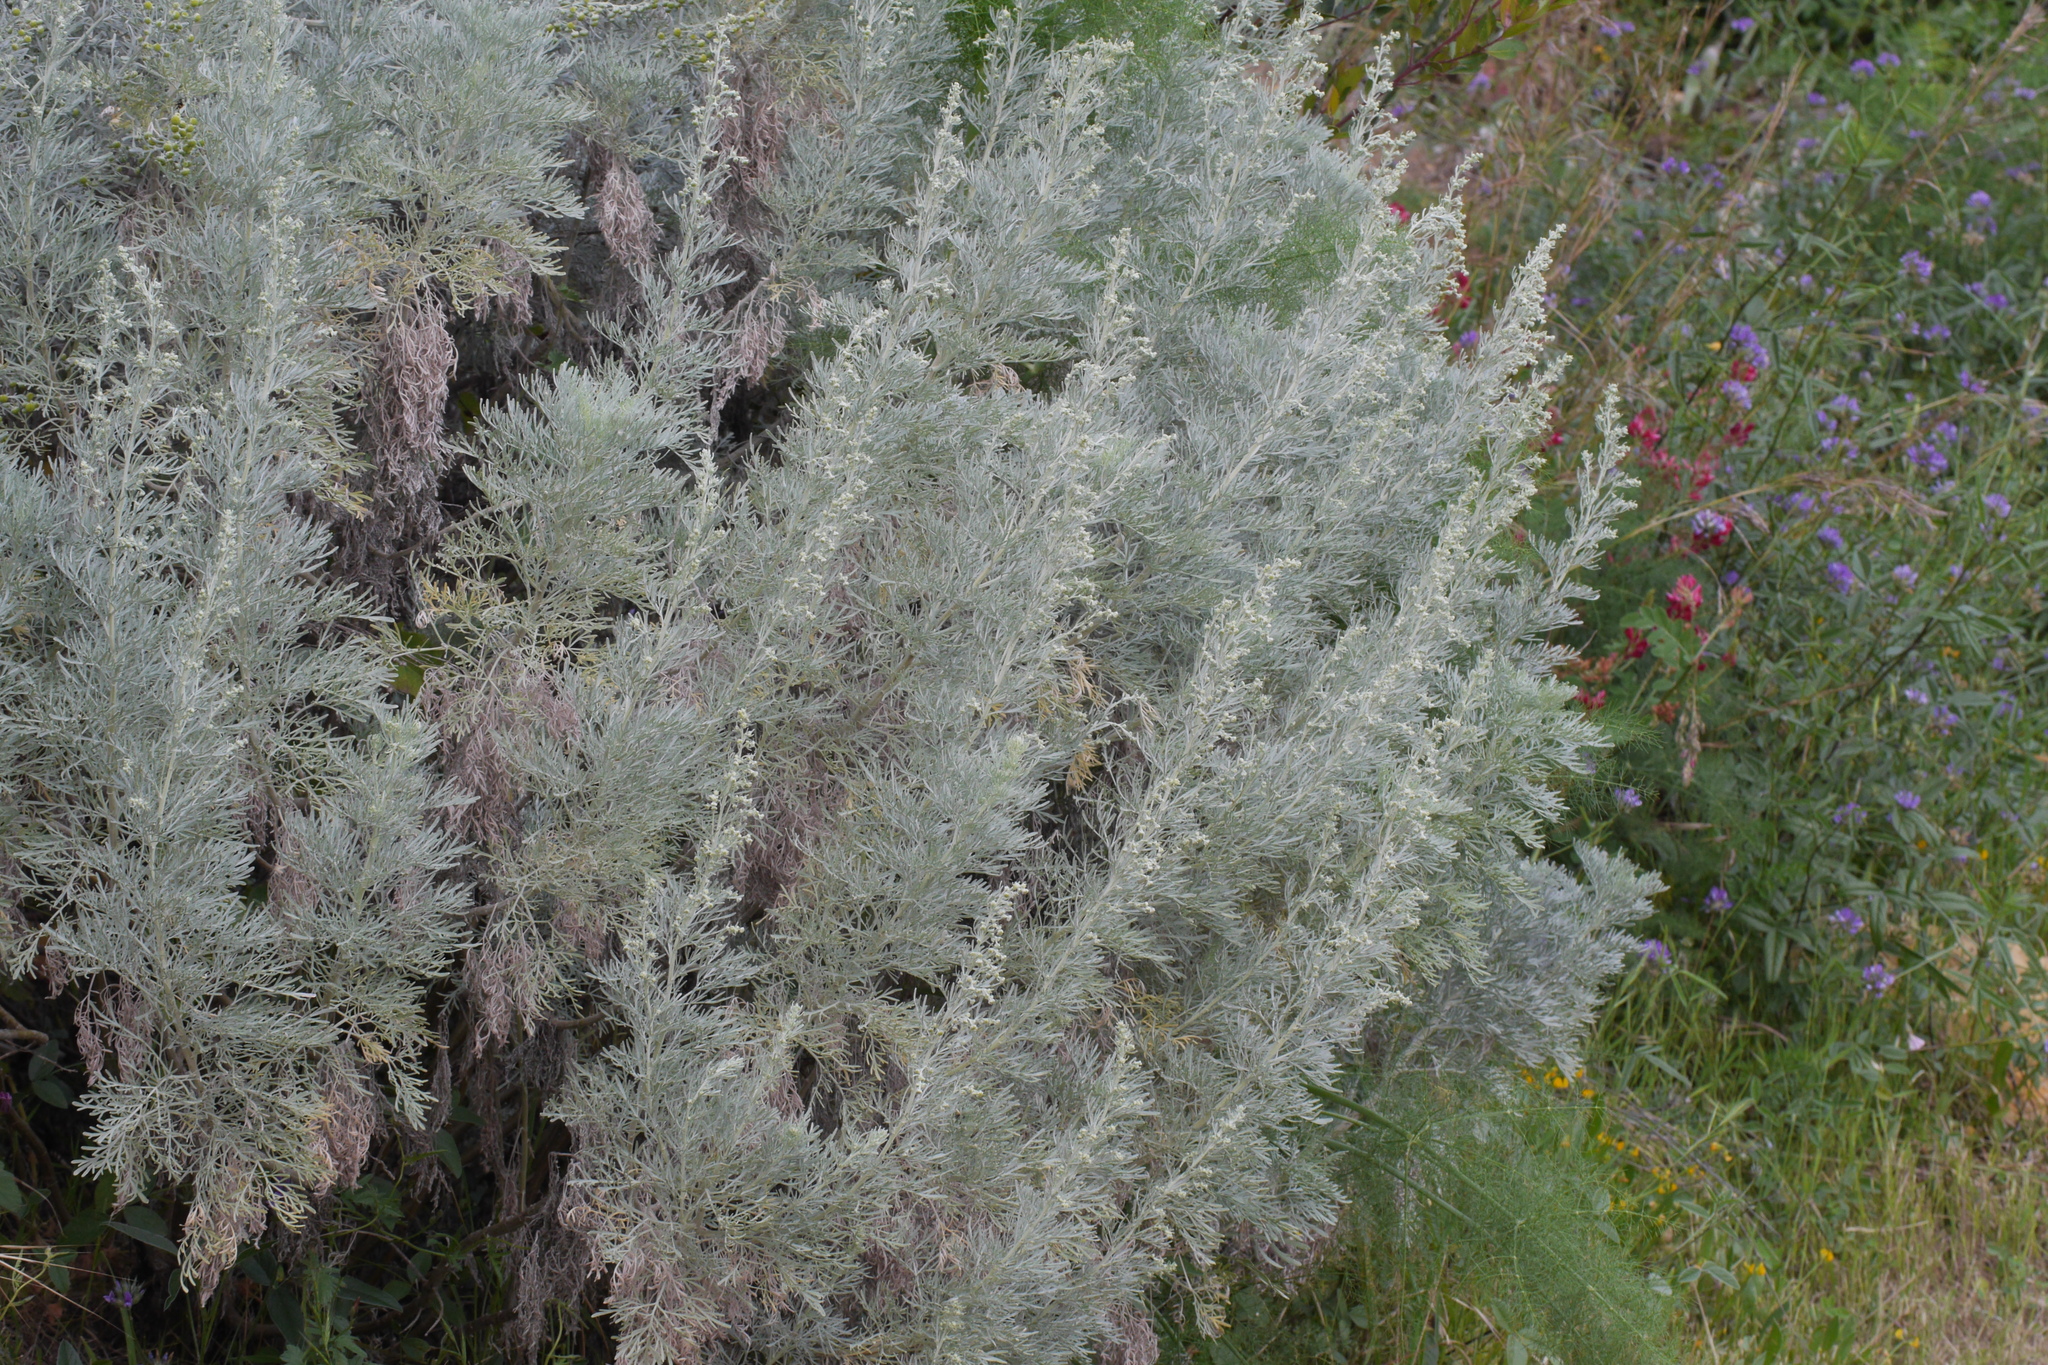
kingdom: Plantae
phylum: Tracheophyta
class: Magnoliopsida
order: Asterales
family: Asteraceae
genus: Artemisia
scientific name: Artemisia arborescens
